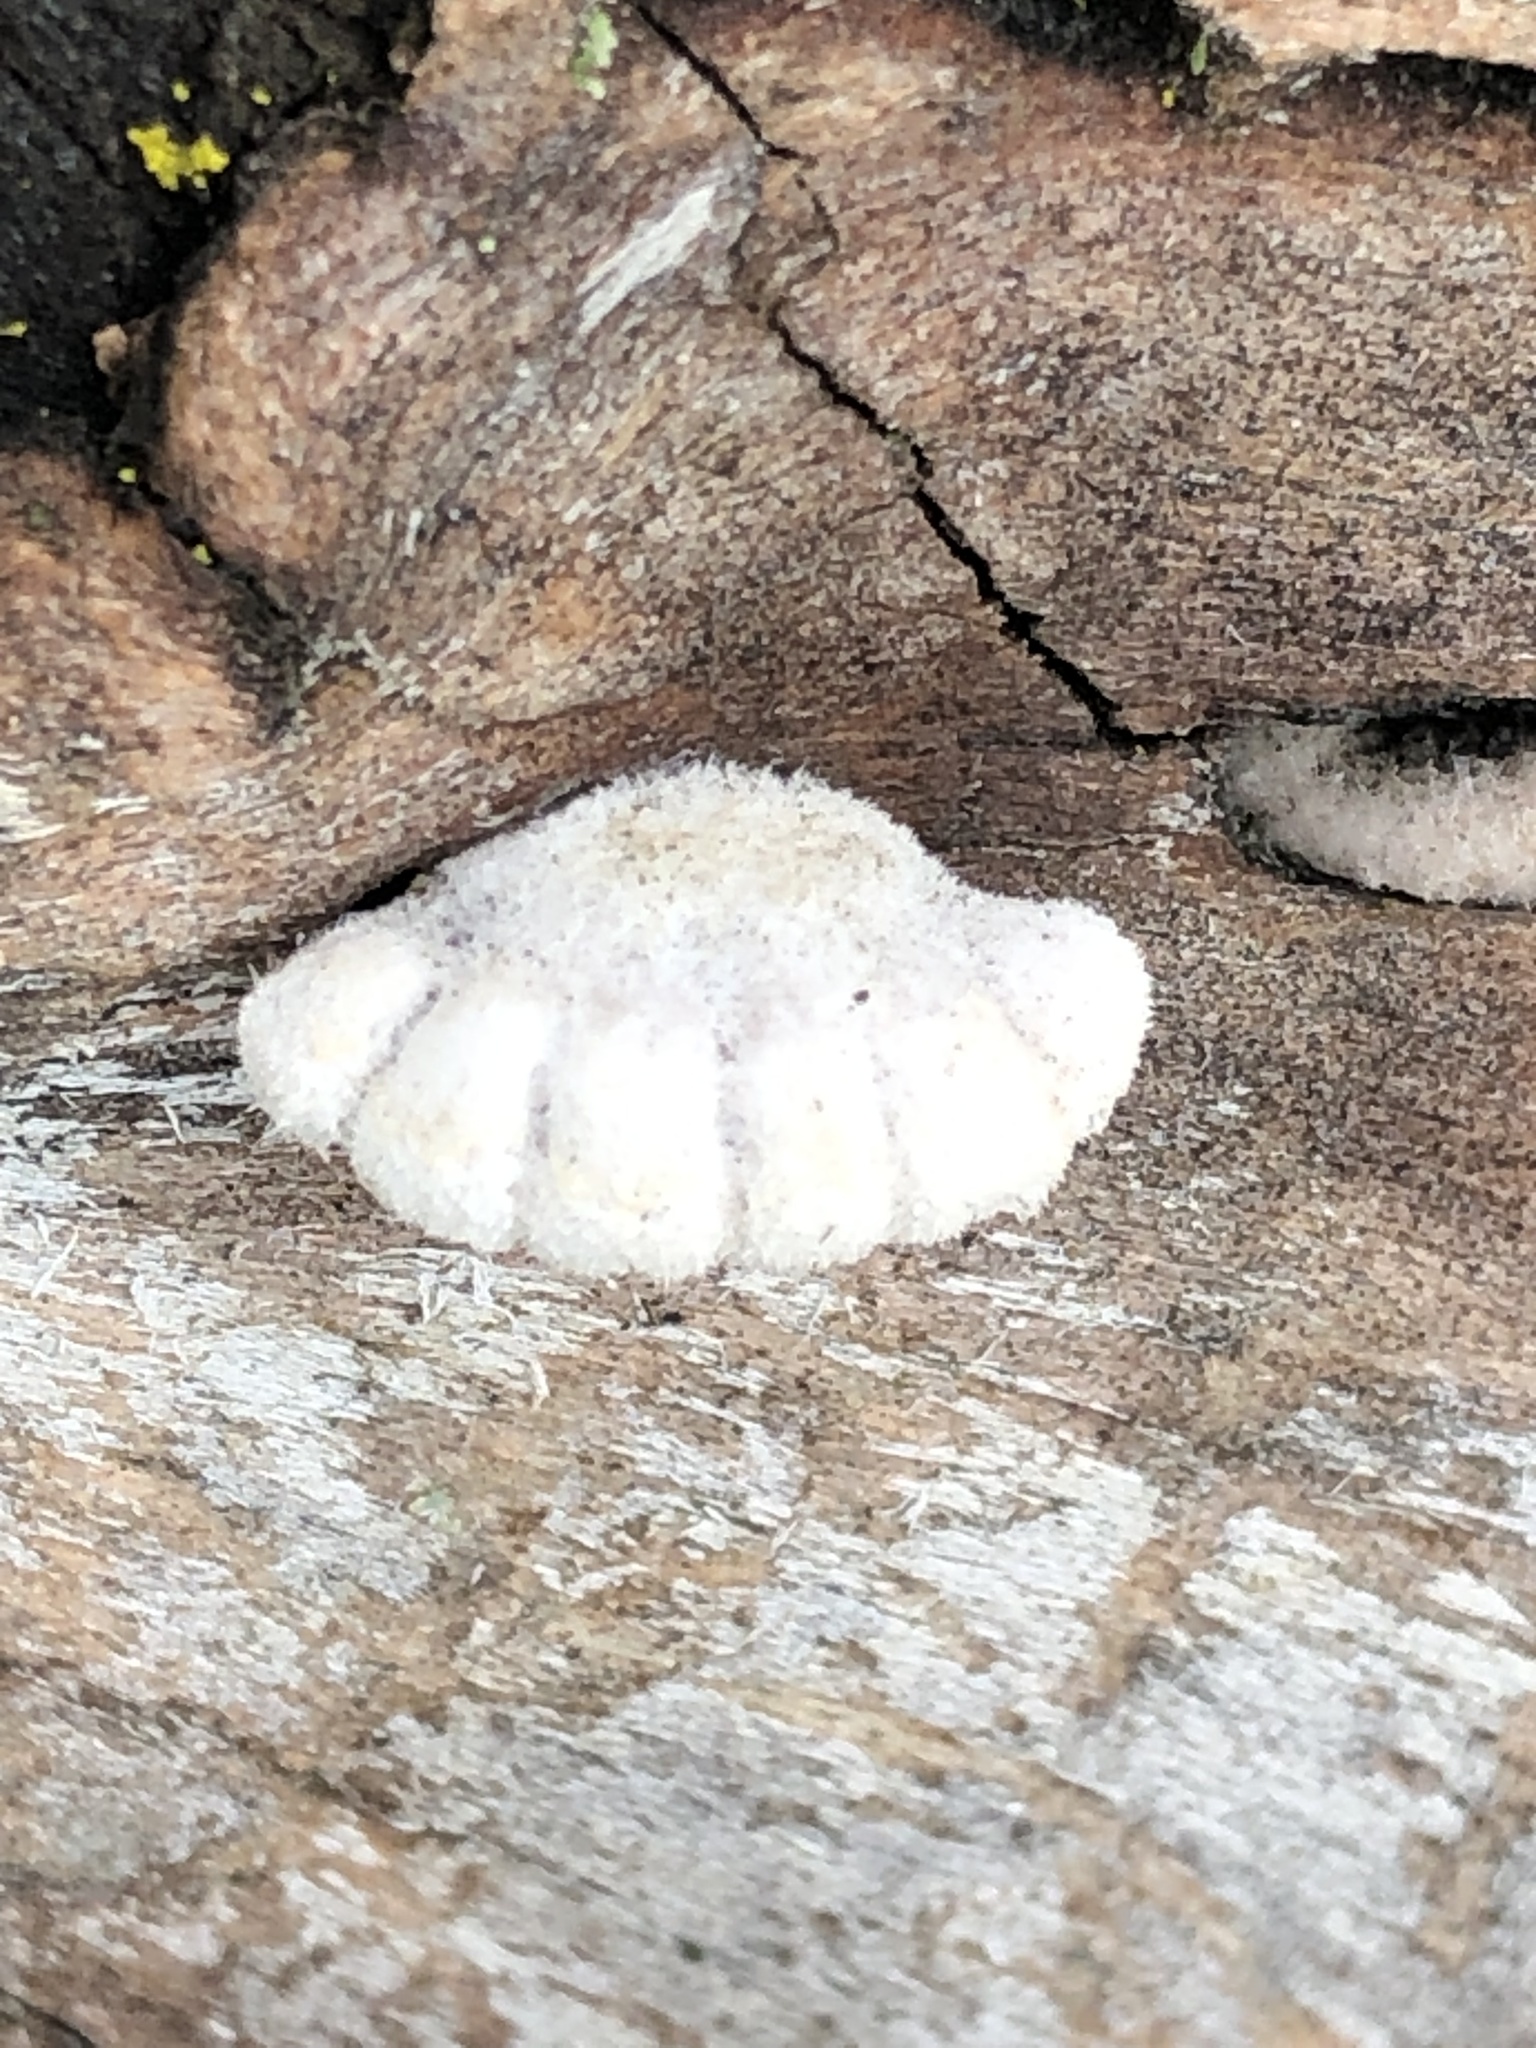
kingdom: Fungi
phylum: Basidiomycota
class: Agaricomycetes
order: Agaricales
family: Schizophyllaceae
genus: Schizophyllum
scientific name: Schizophyllum commune
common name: Common porecrust
